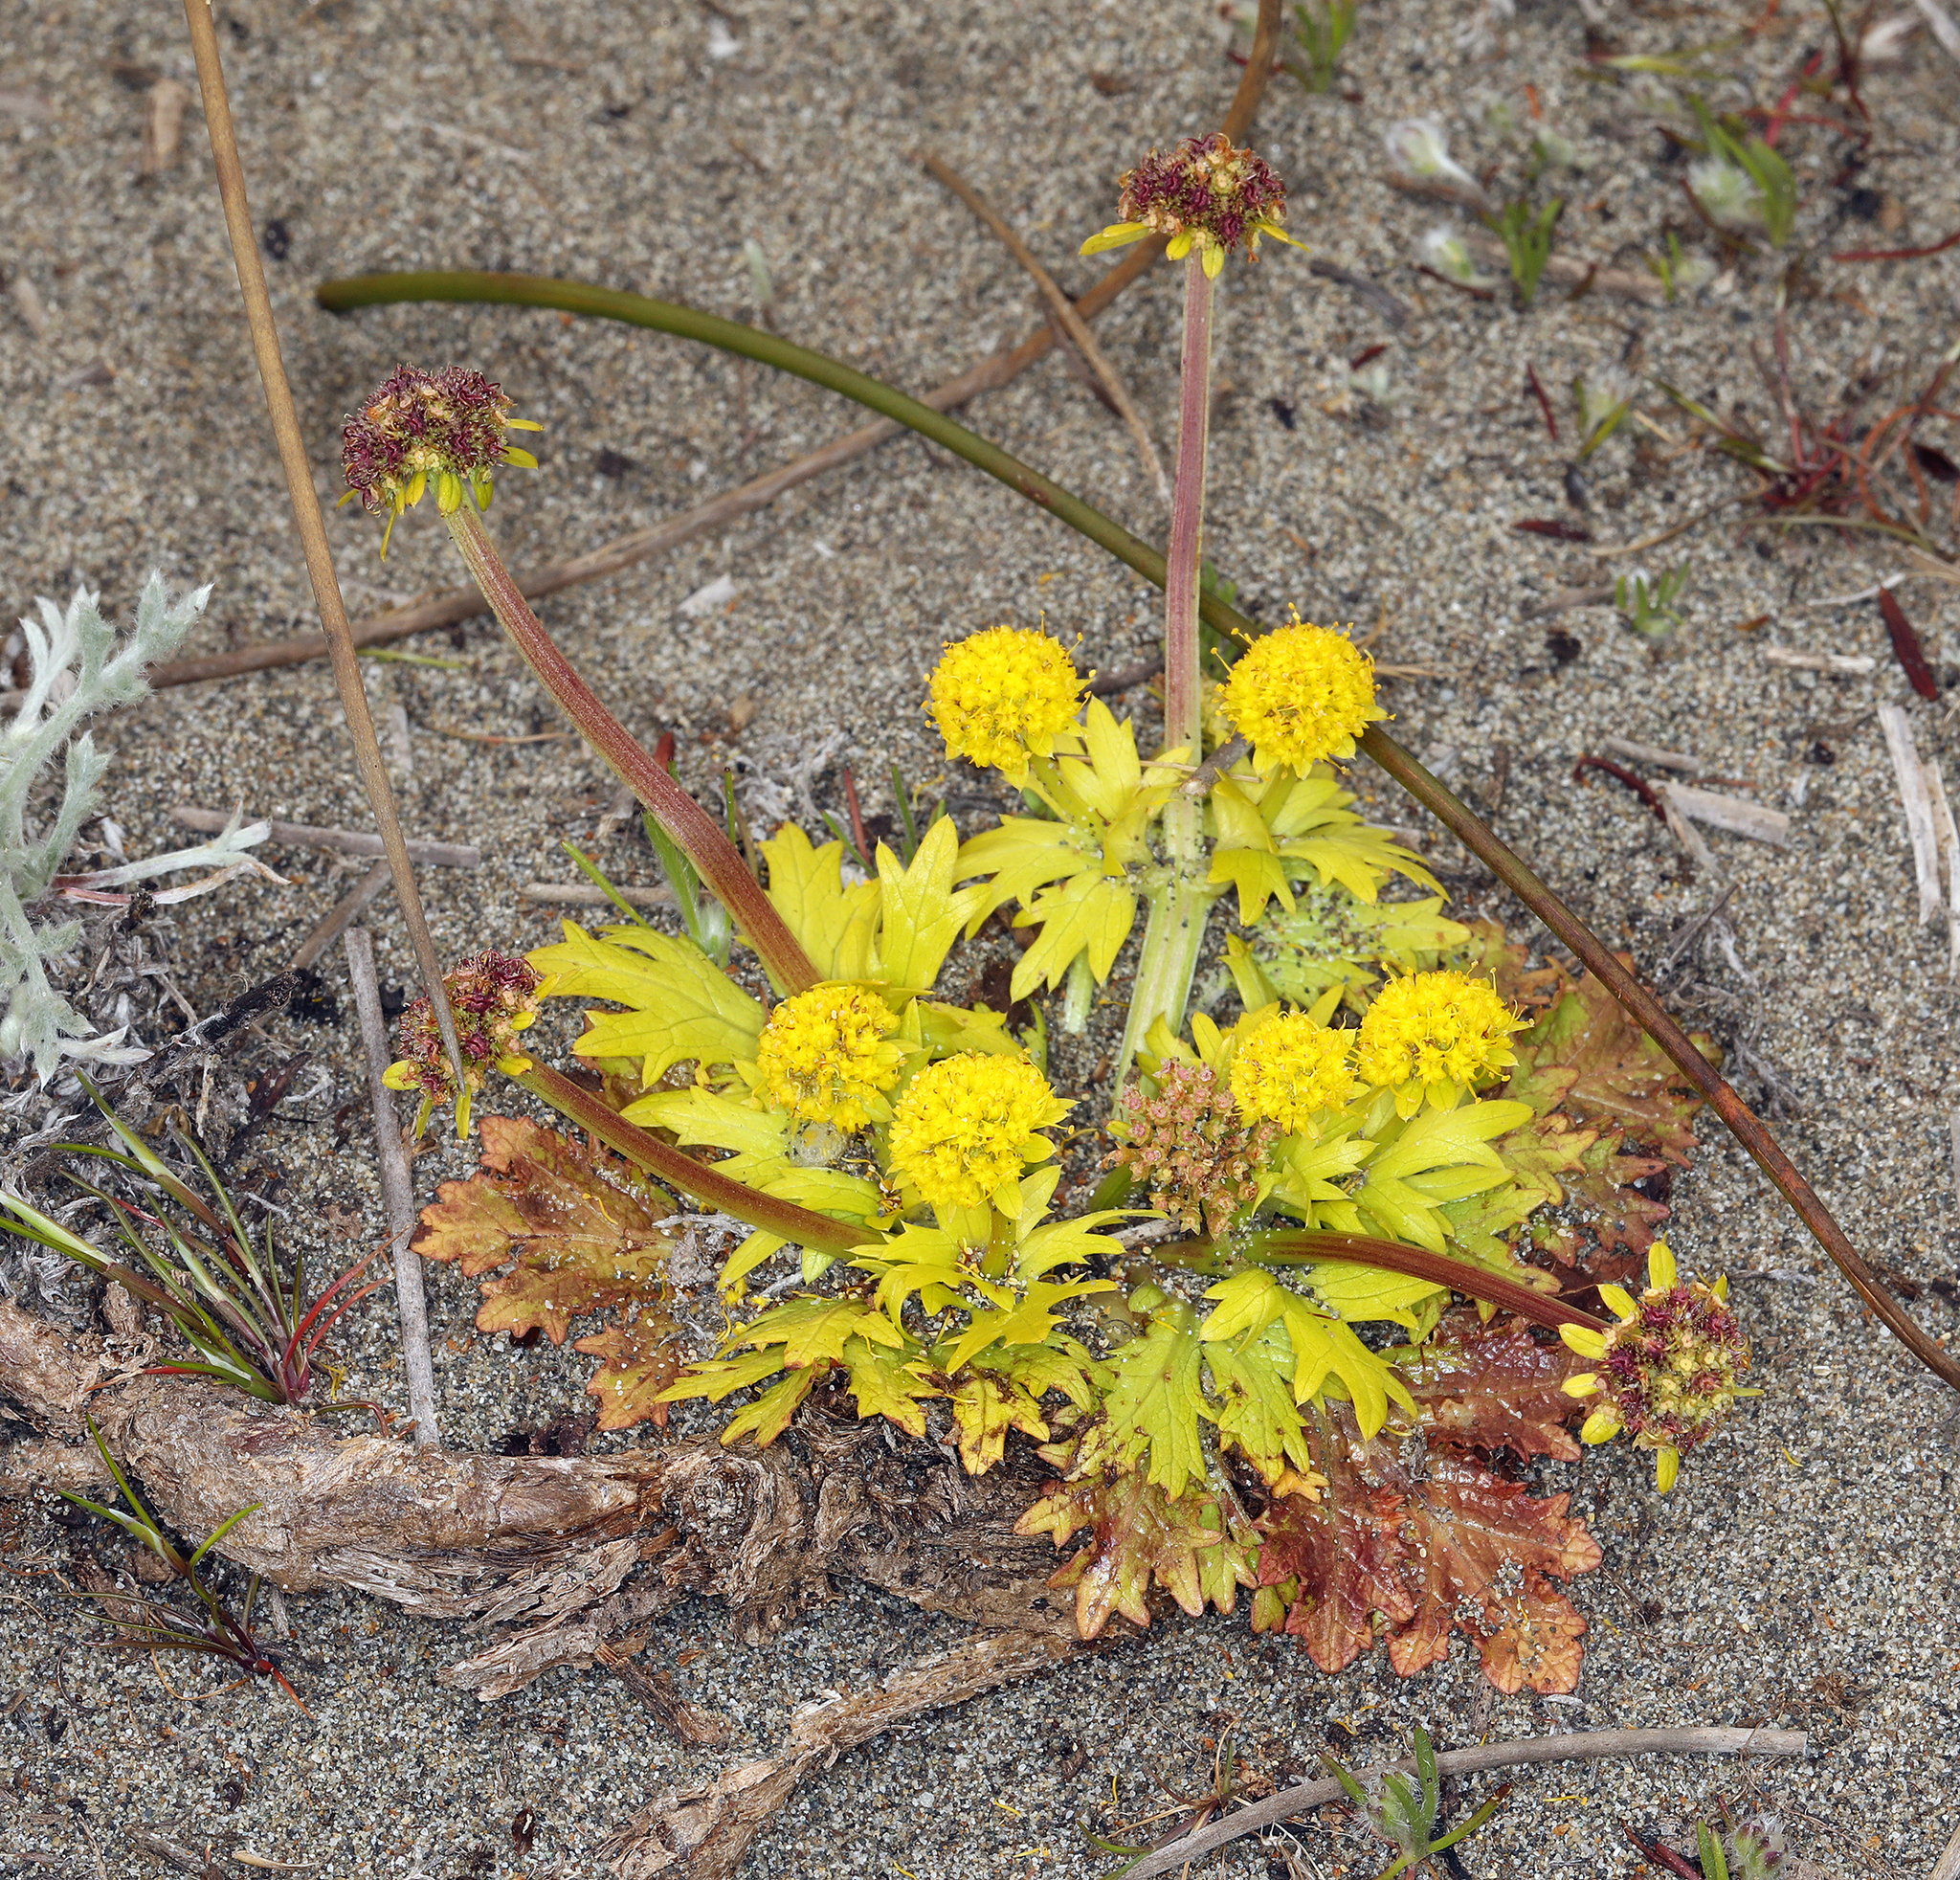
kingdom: Plantae
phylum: Tracheophyta
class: Magnoliopsida
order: Apiales
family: Apiaceae
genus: Sanicula
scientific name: Sanicula arctopoides
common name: Footsteps-of-spring
